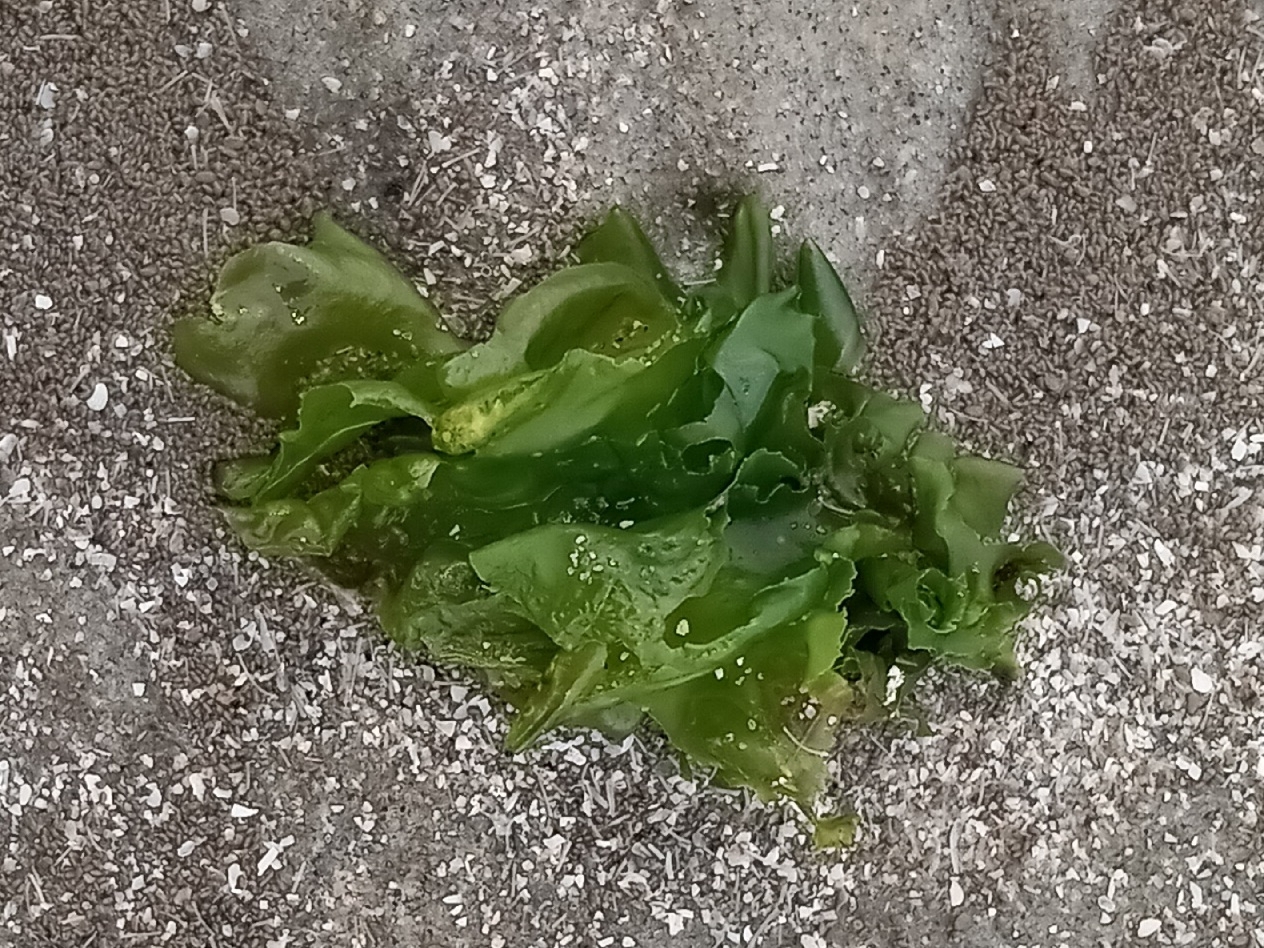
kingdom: Plantae
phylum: Chlorophyta
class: Ulvophyceae
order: Ulvales
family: Ulvaceae
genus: Ulva
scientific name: Ulva lactuca
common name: Sea lettuce
